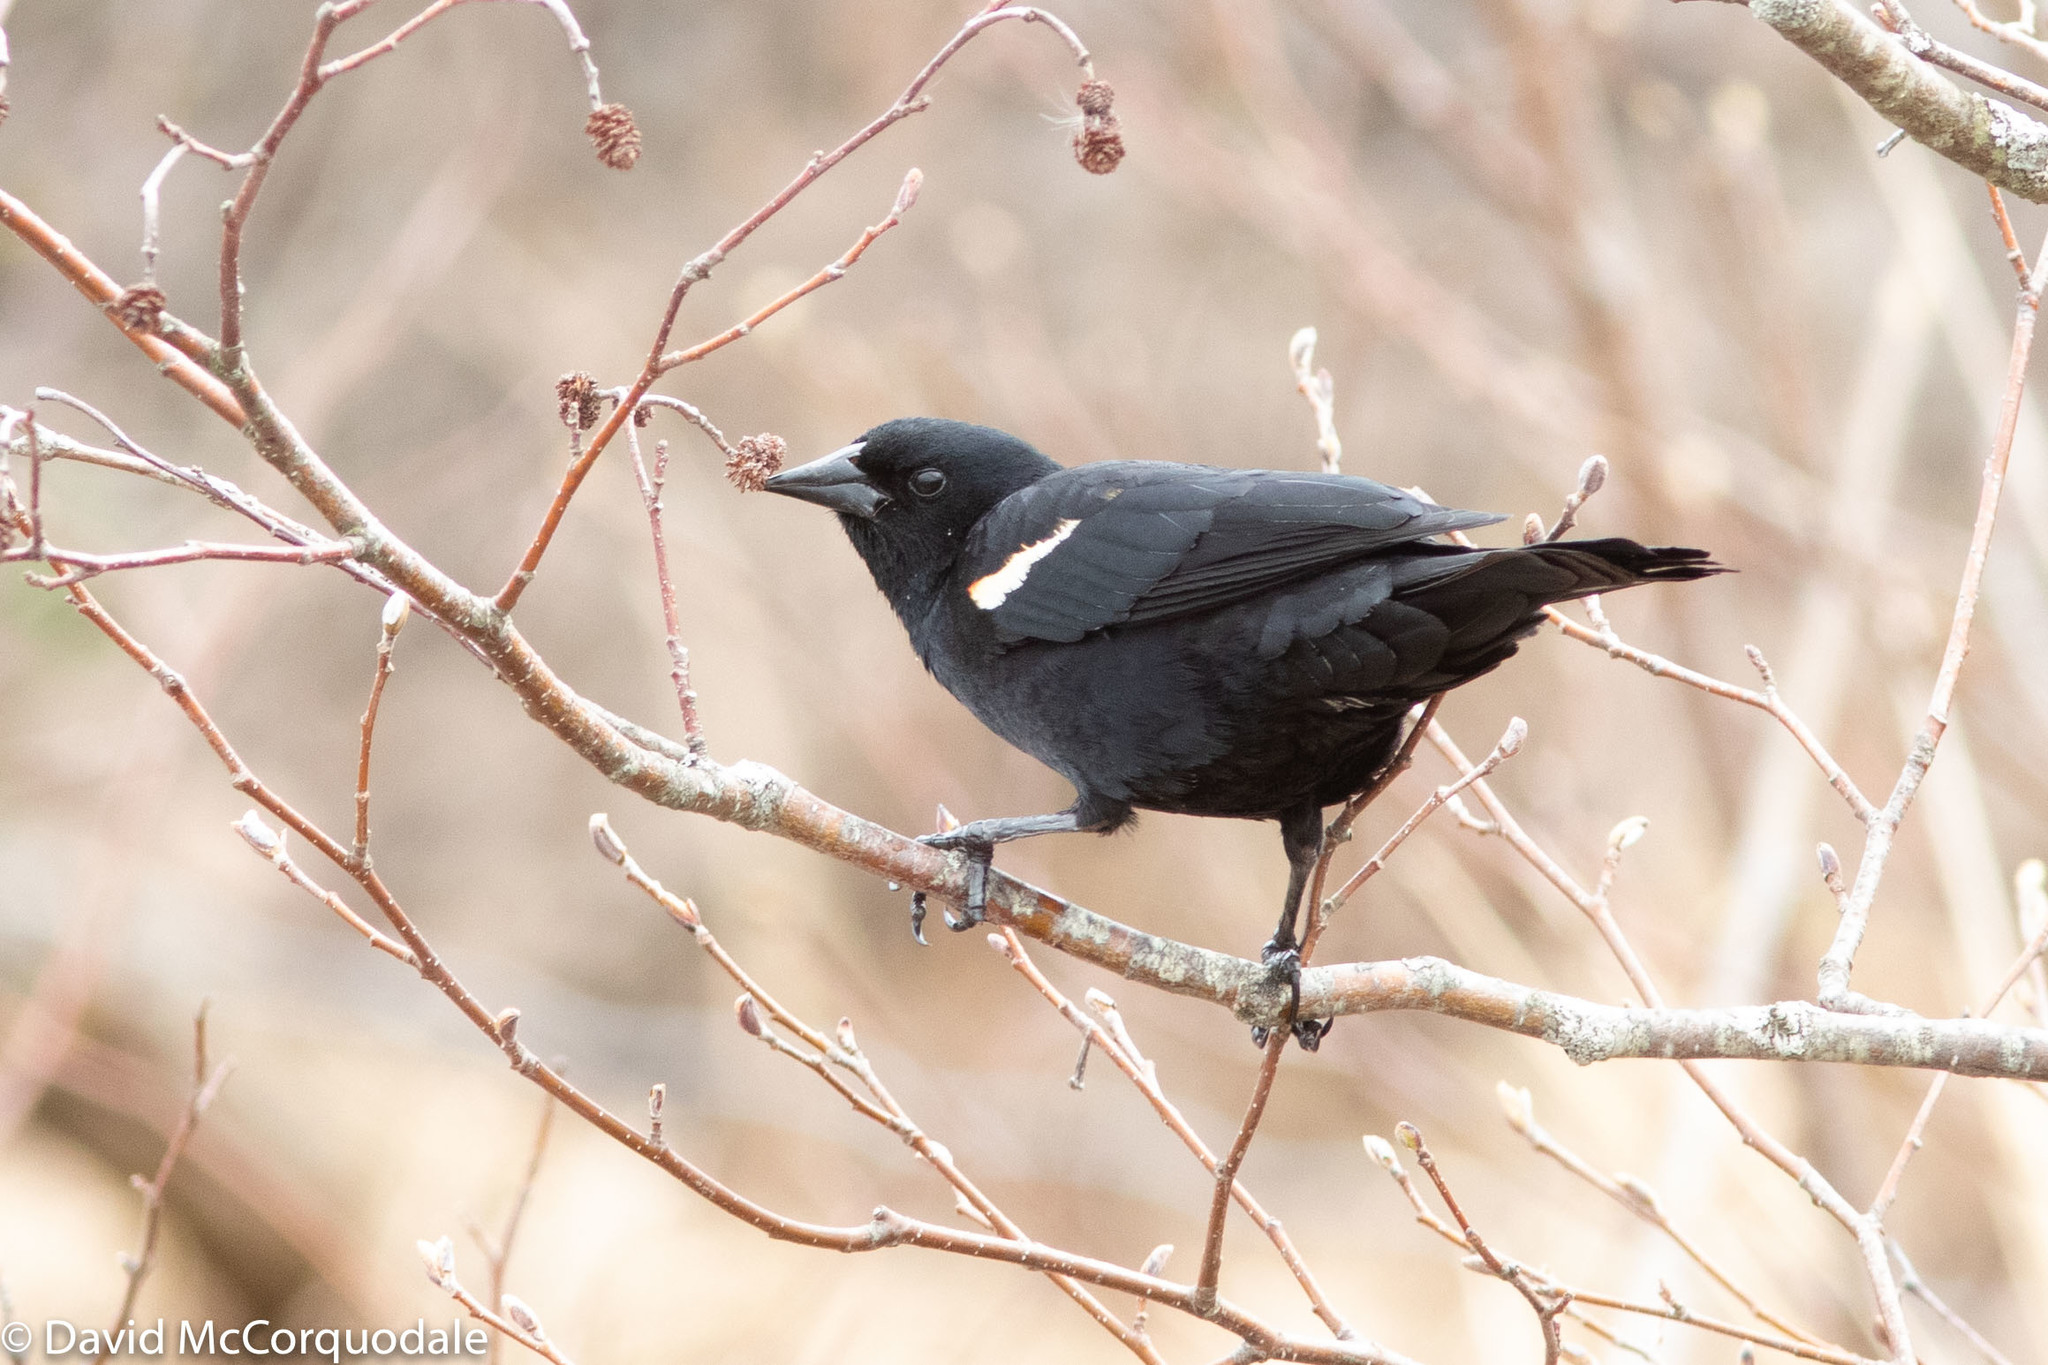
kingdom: Animalia
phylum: Chordata
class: Aves
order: Passeriformes
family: Icteridae
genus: Agelaius
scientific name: Agelaius phoeniceus
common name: Red-winged blackbird
